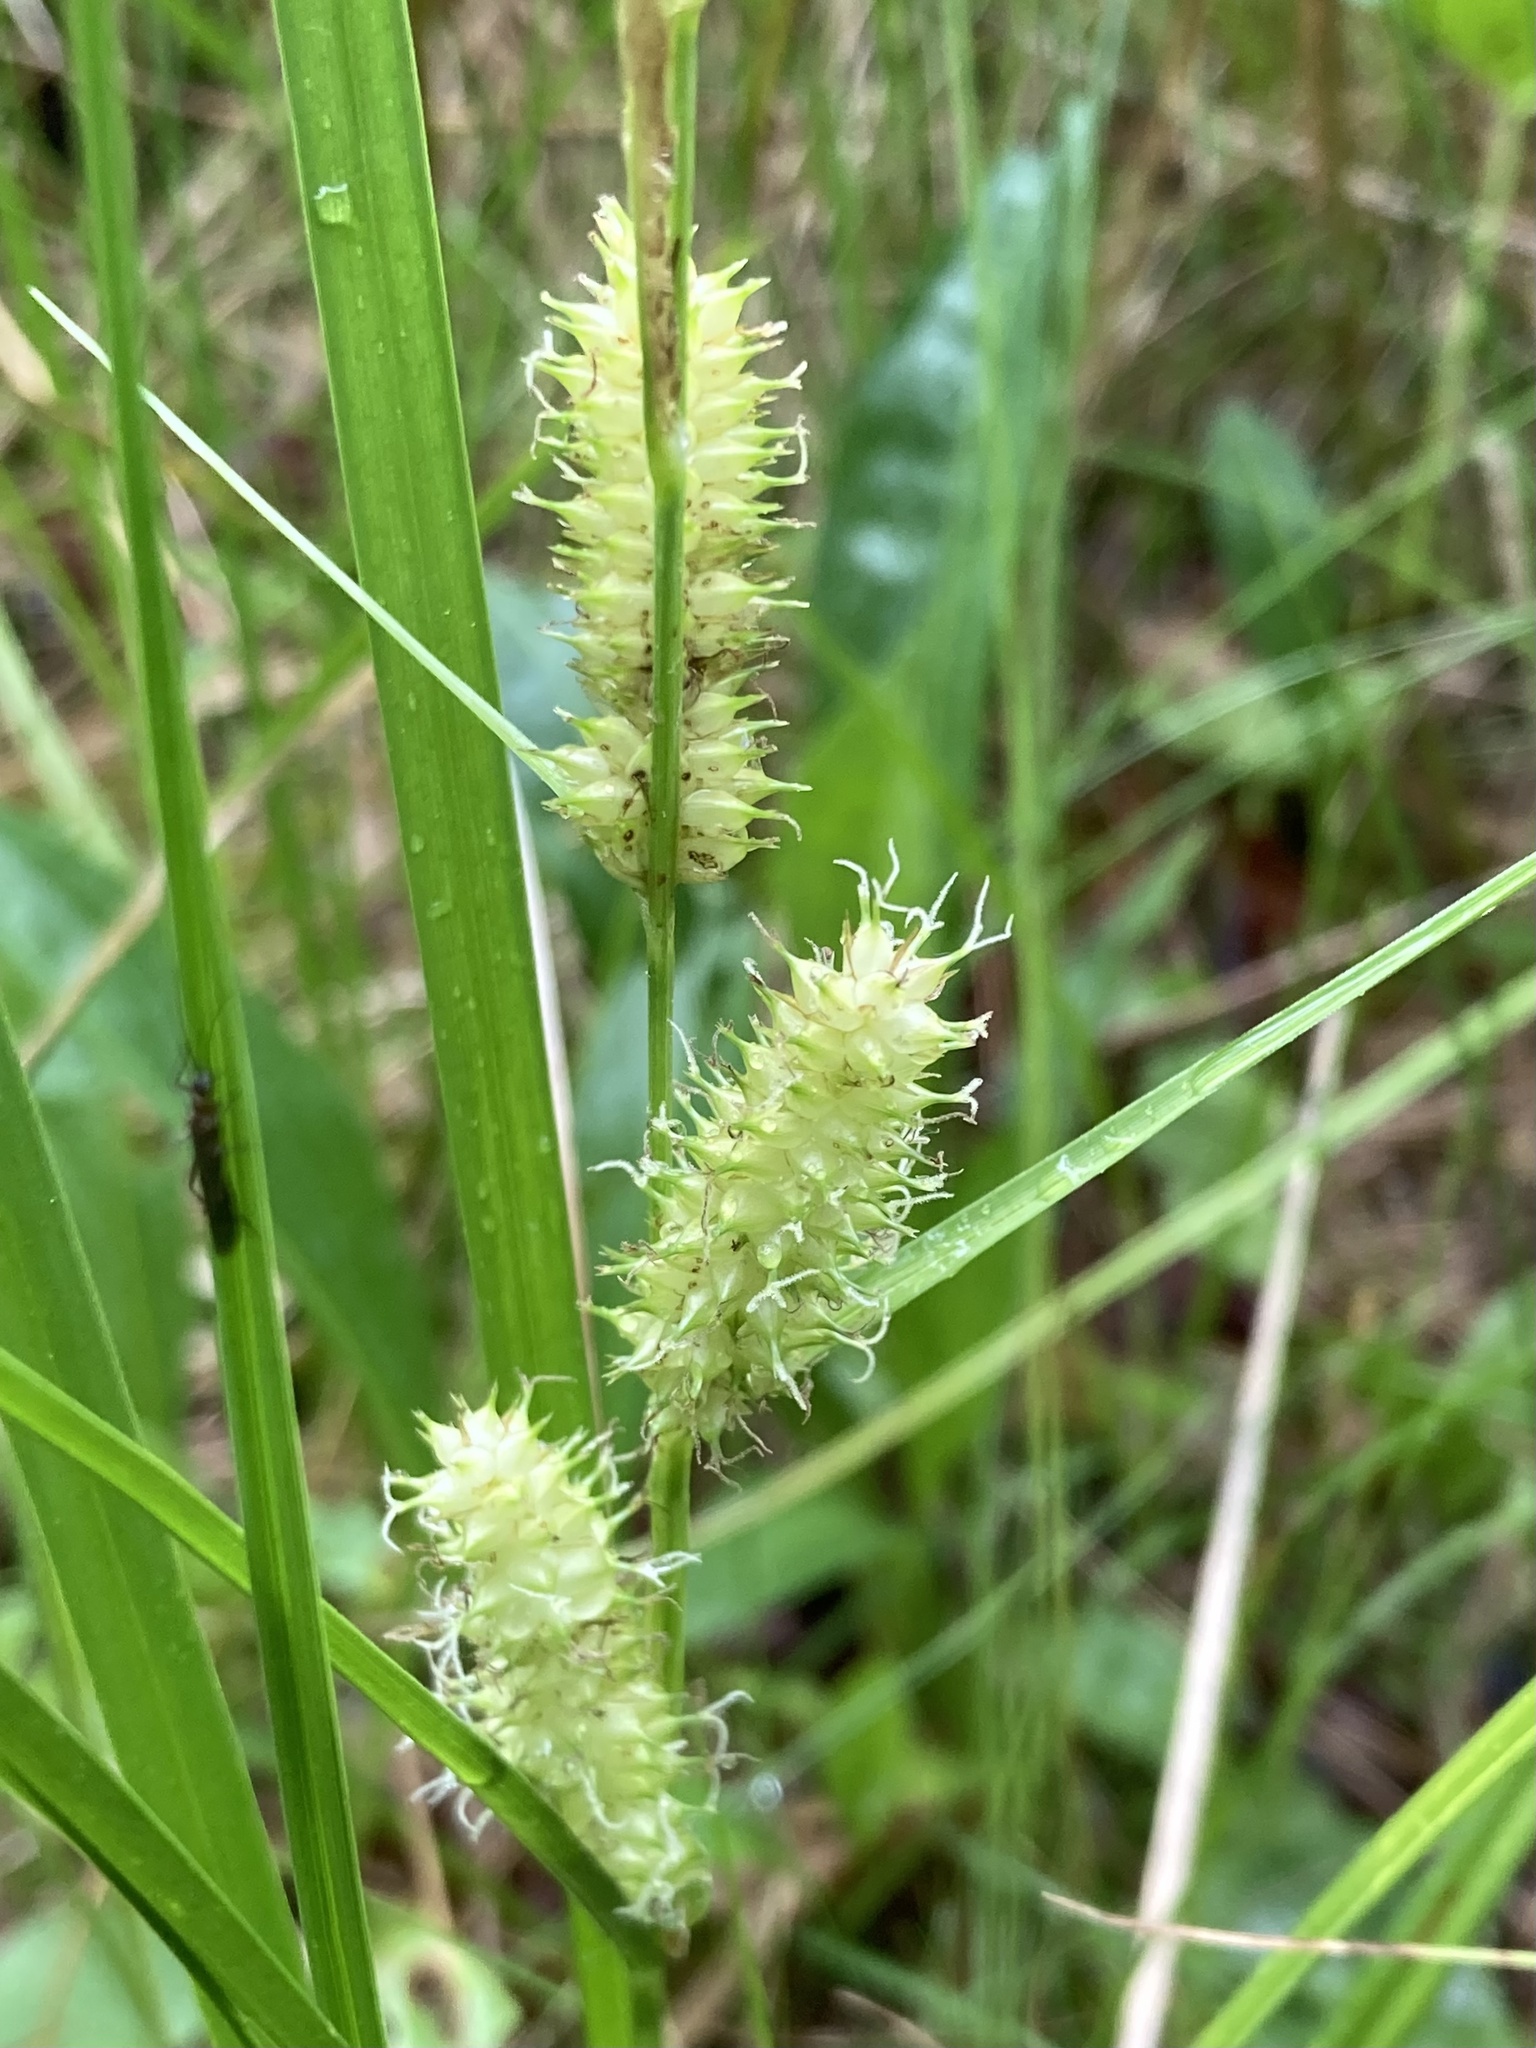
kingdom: Plantae
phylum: Tracheophyta
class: Liliopsida
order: Poales
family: Cyperaceae
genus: Carex
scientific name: Carex utriculata
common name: Beaked sedge
